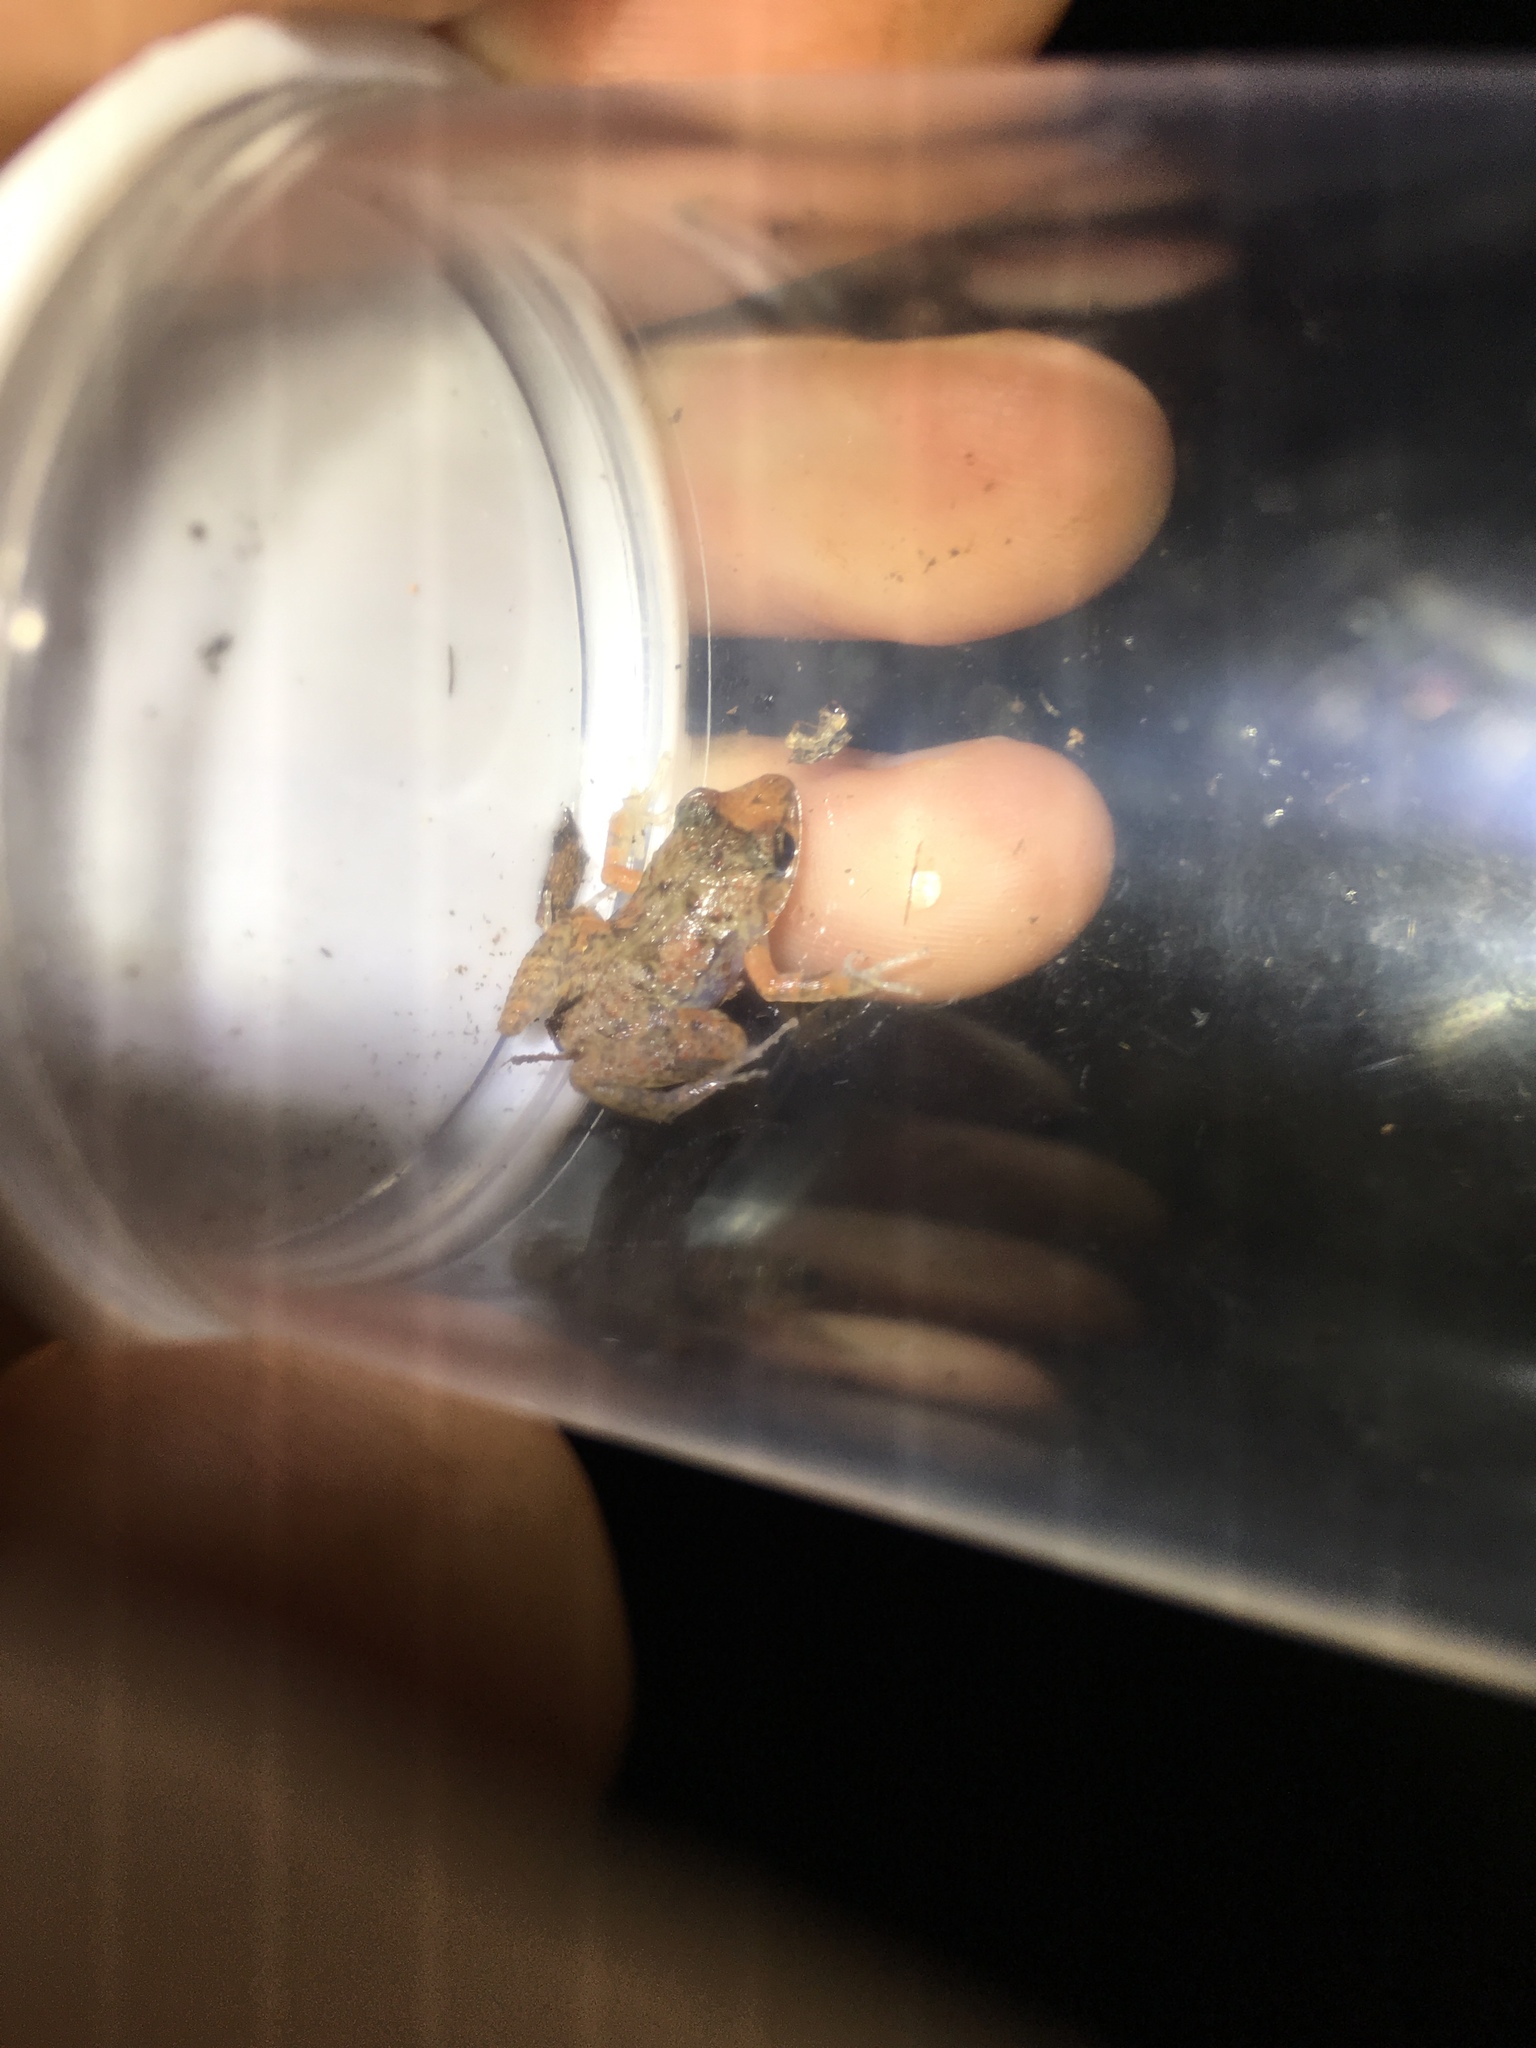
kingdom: Animalia
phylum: Chordata
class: Amphibia
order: Anura
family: Eleutherodactylidae
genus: Eleutherodactylus
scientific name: Eleutherodactylus planirostris
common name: Greenhouse frog
